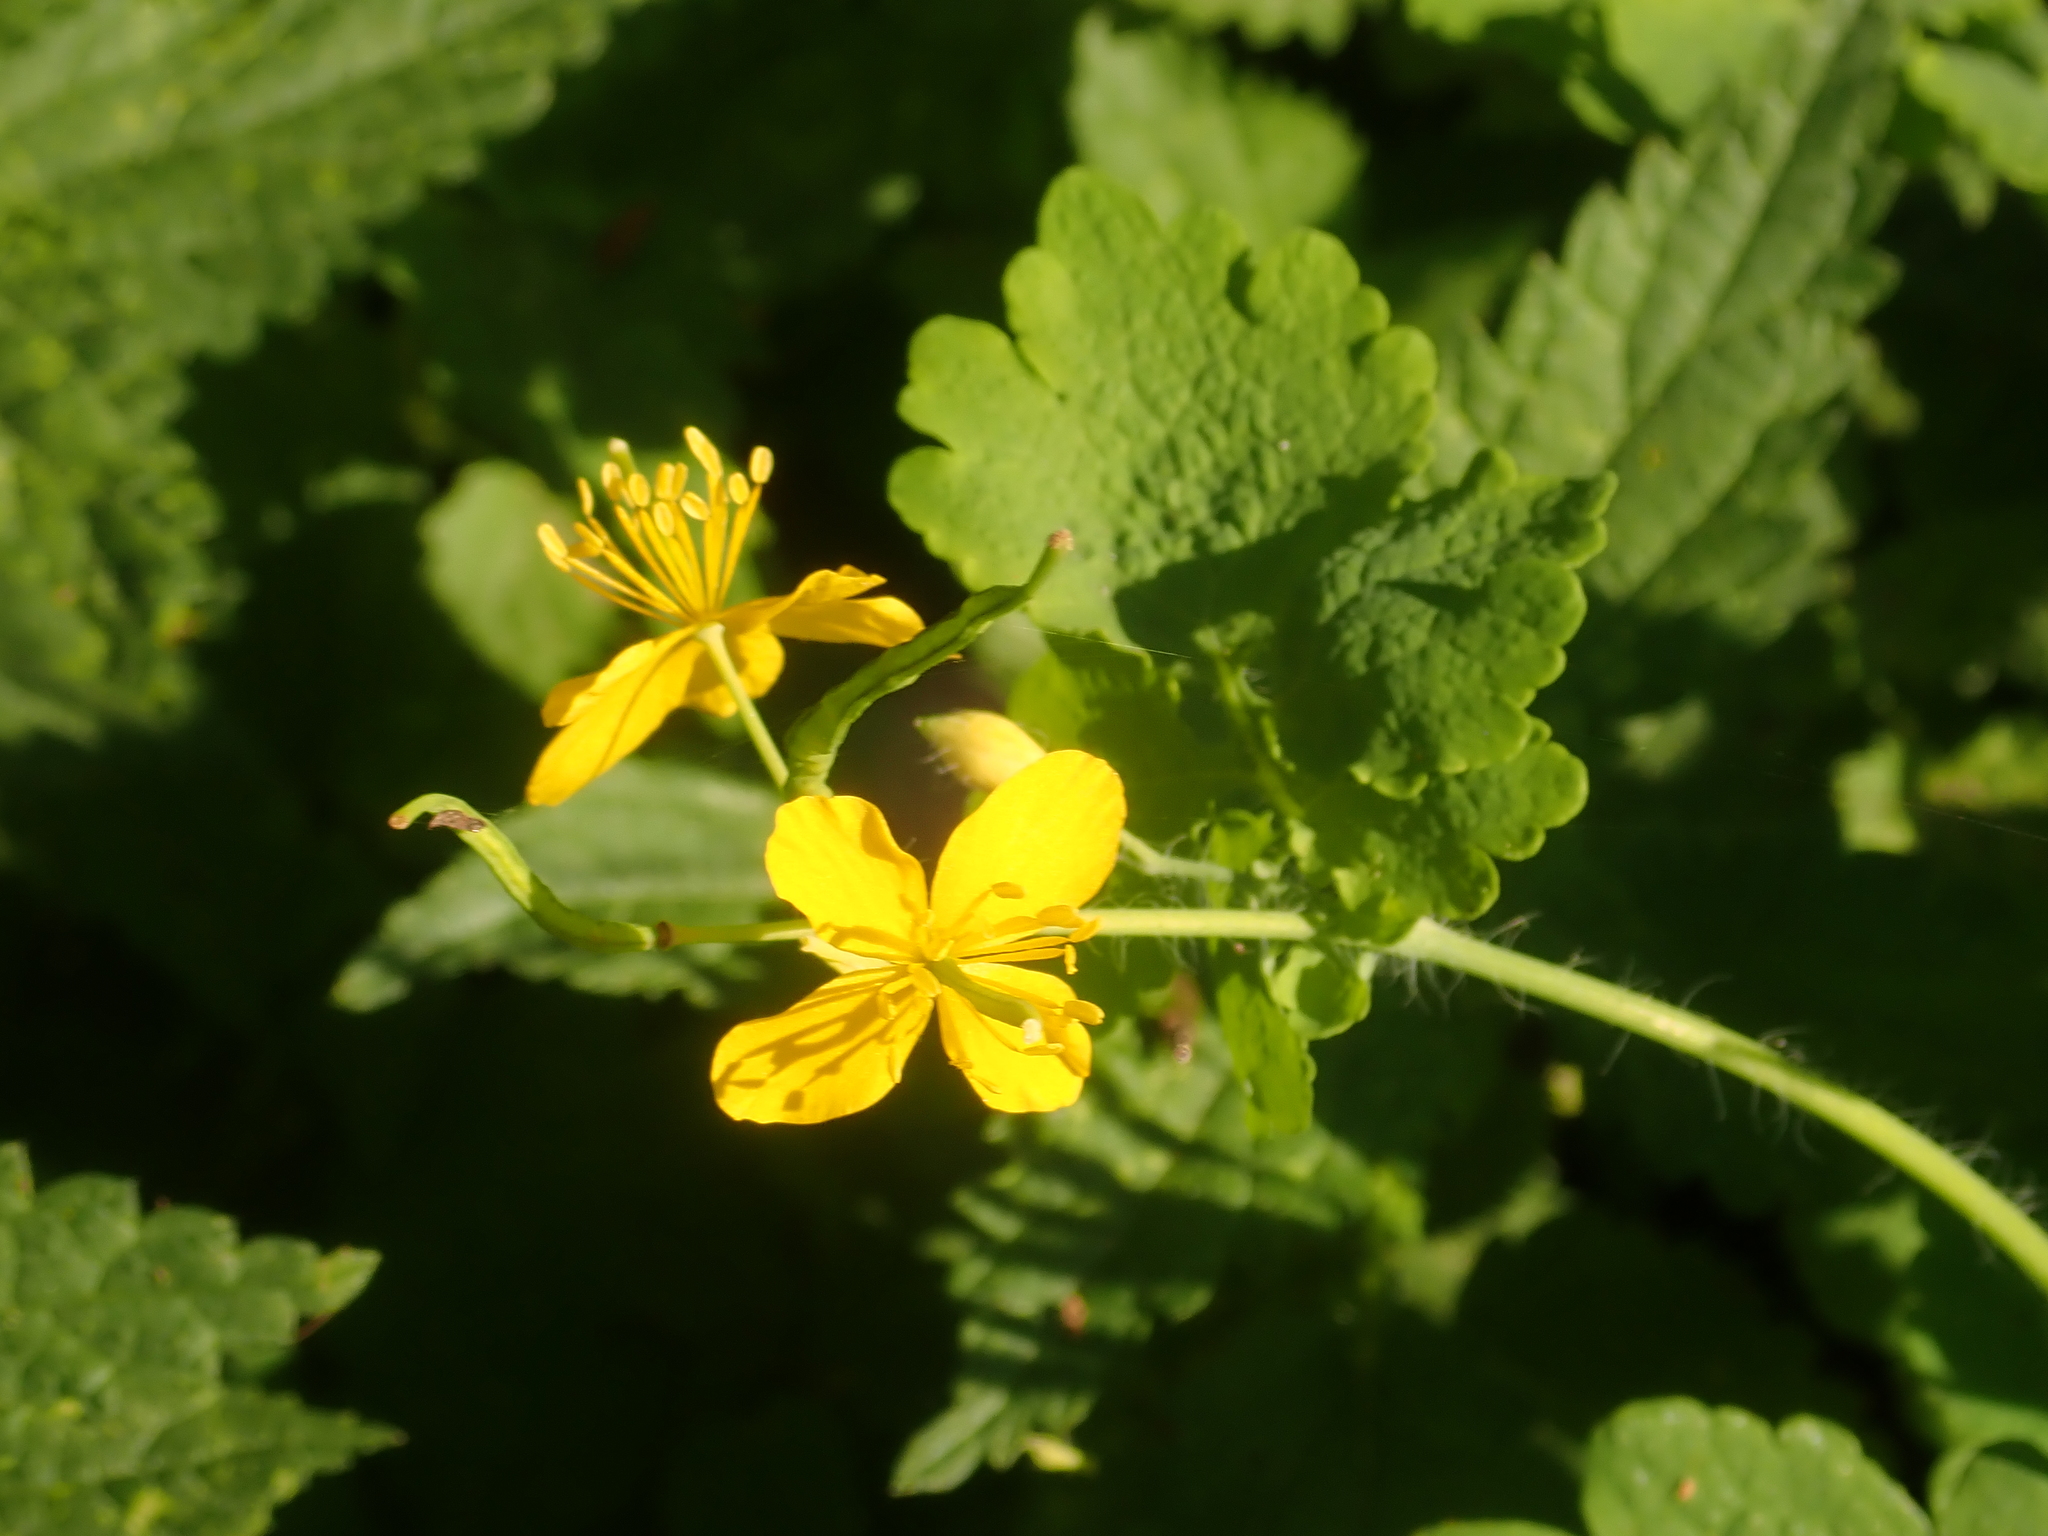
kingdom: Plantae
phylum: Tracheophyta
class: Magnoliopsida
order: Ranunculales
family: Papaveraceae
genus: Chelidonium
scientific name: Chelidonium majus
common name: Greater celandine
